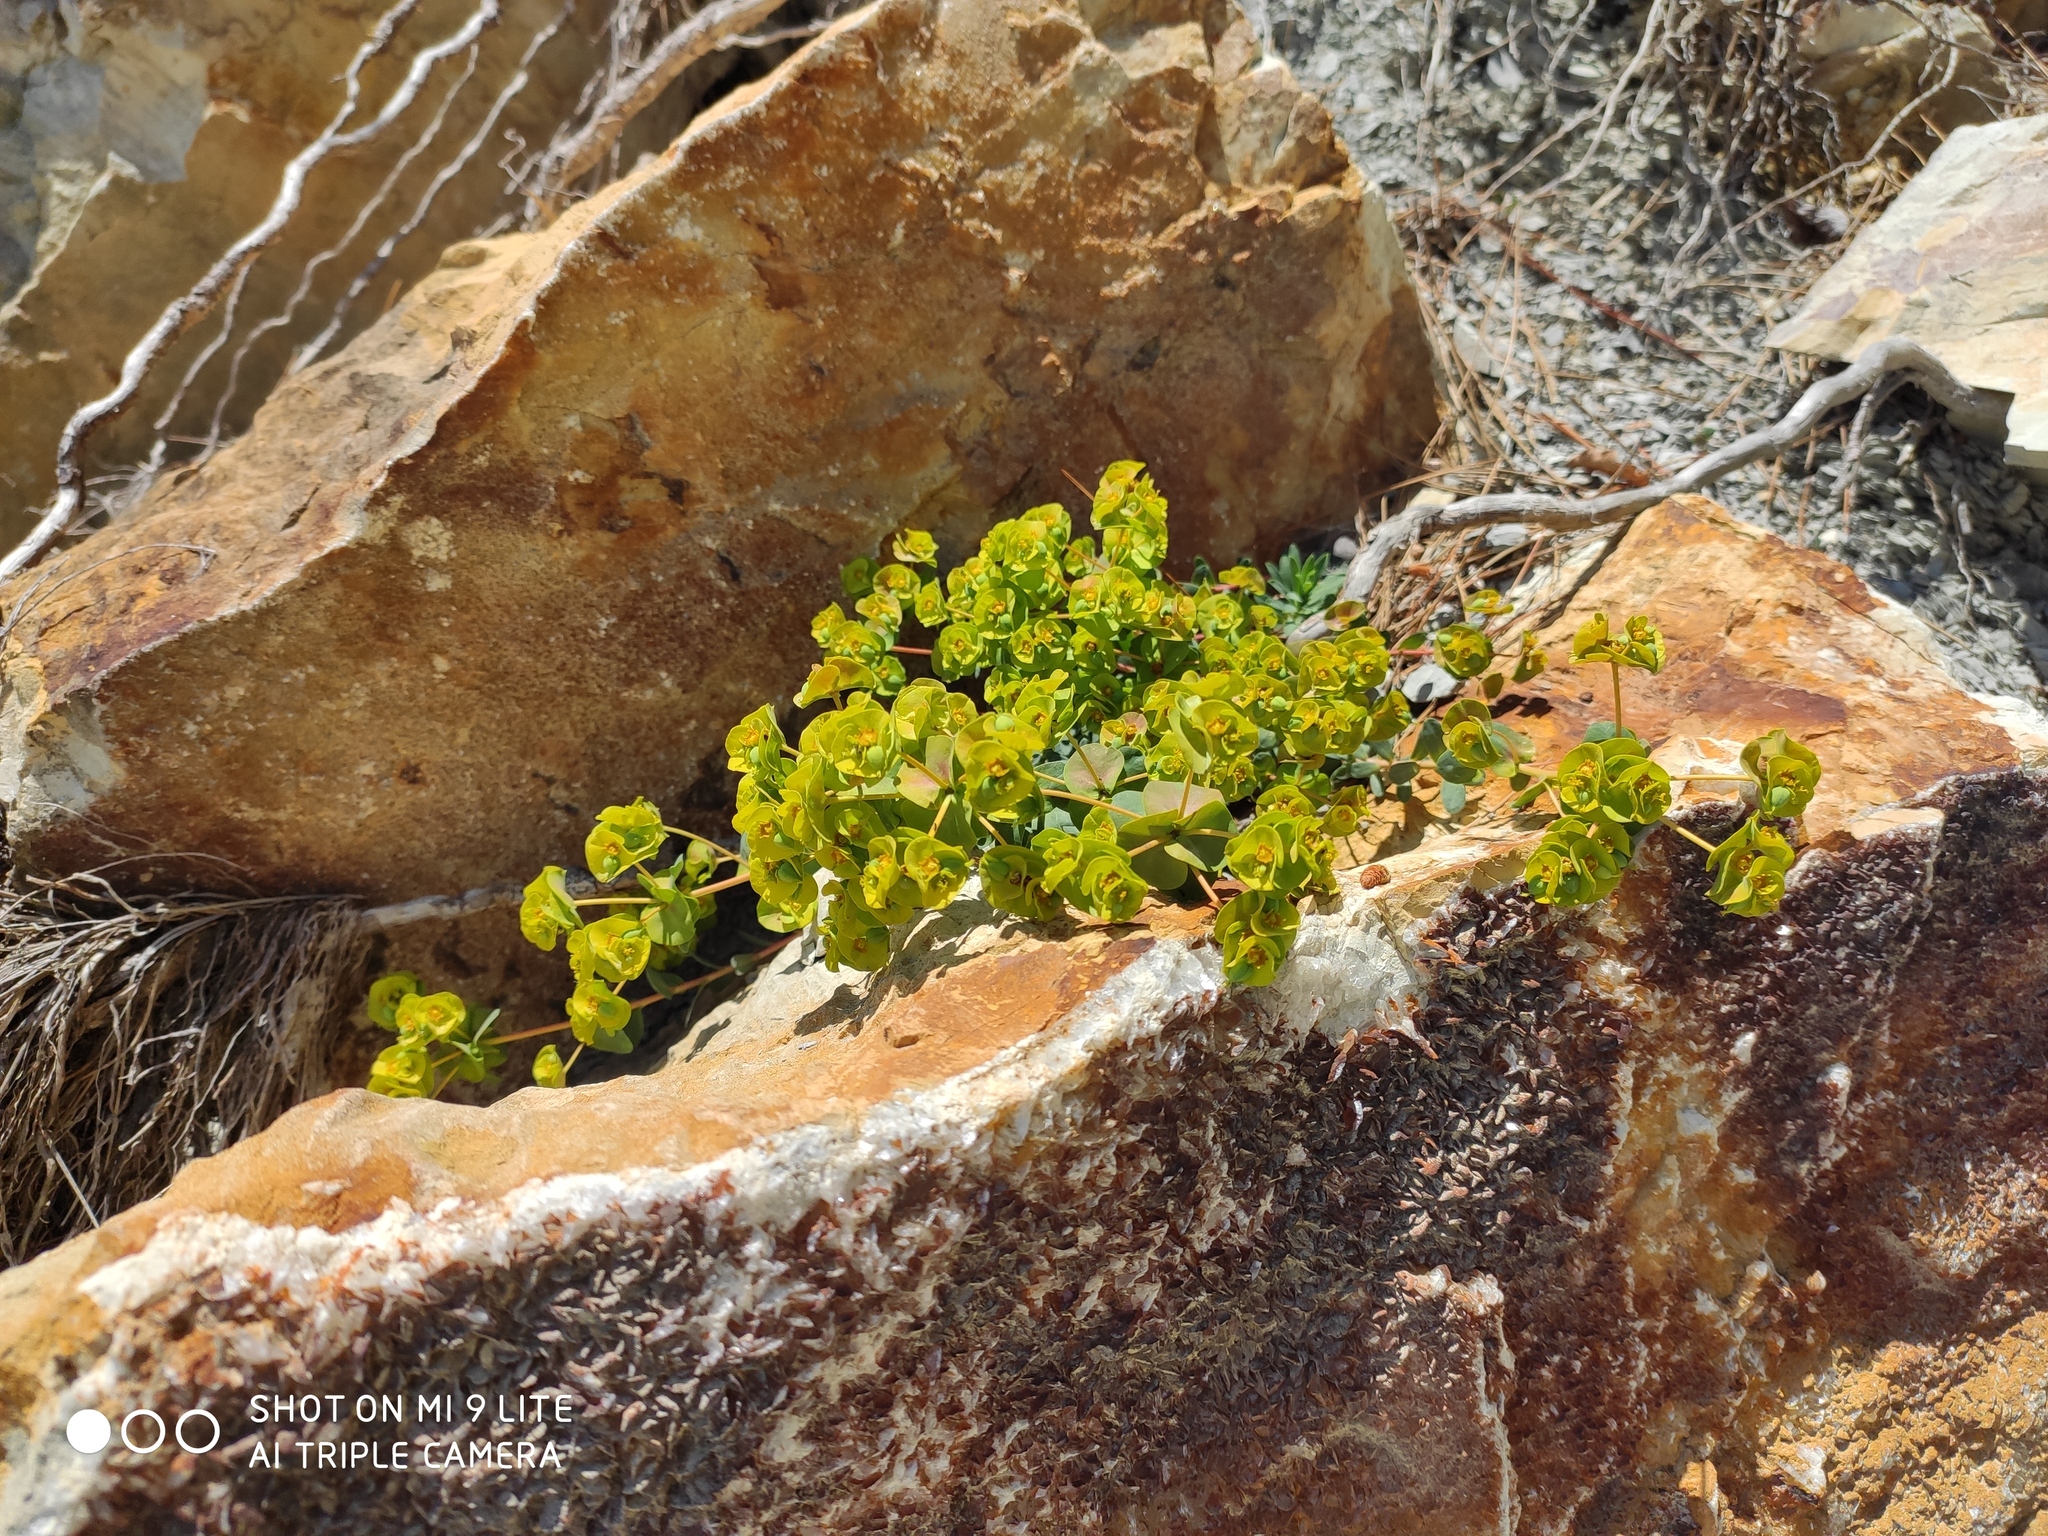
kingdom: Plantae
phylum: Tracheophyta
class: Magnoliopsida
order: Malpighiales
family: Euphorbiaceae
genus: Euphorbia
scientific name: Euphorbia petrophila
